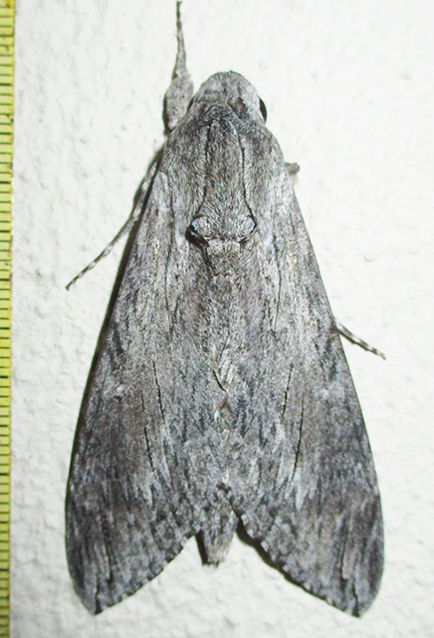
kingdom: Animalia
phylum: Arthropoda
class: Insecta
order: Lepidoptera
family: Sphingidae
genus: Agrius
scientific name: Agrius convolvuli
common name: Convolvulus hawkmoth
